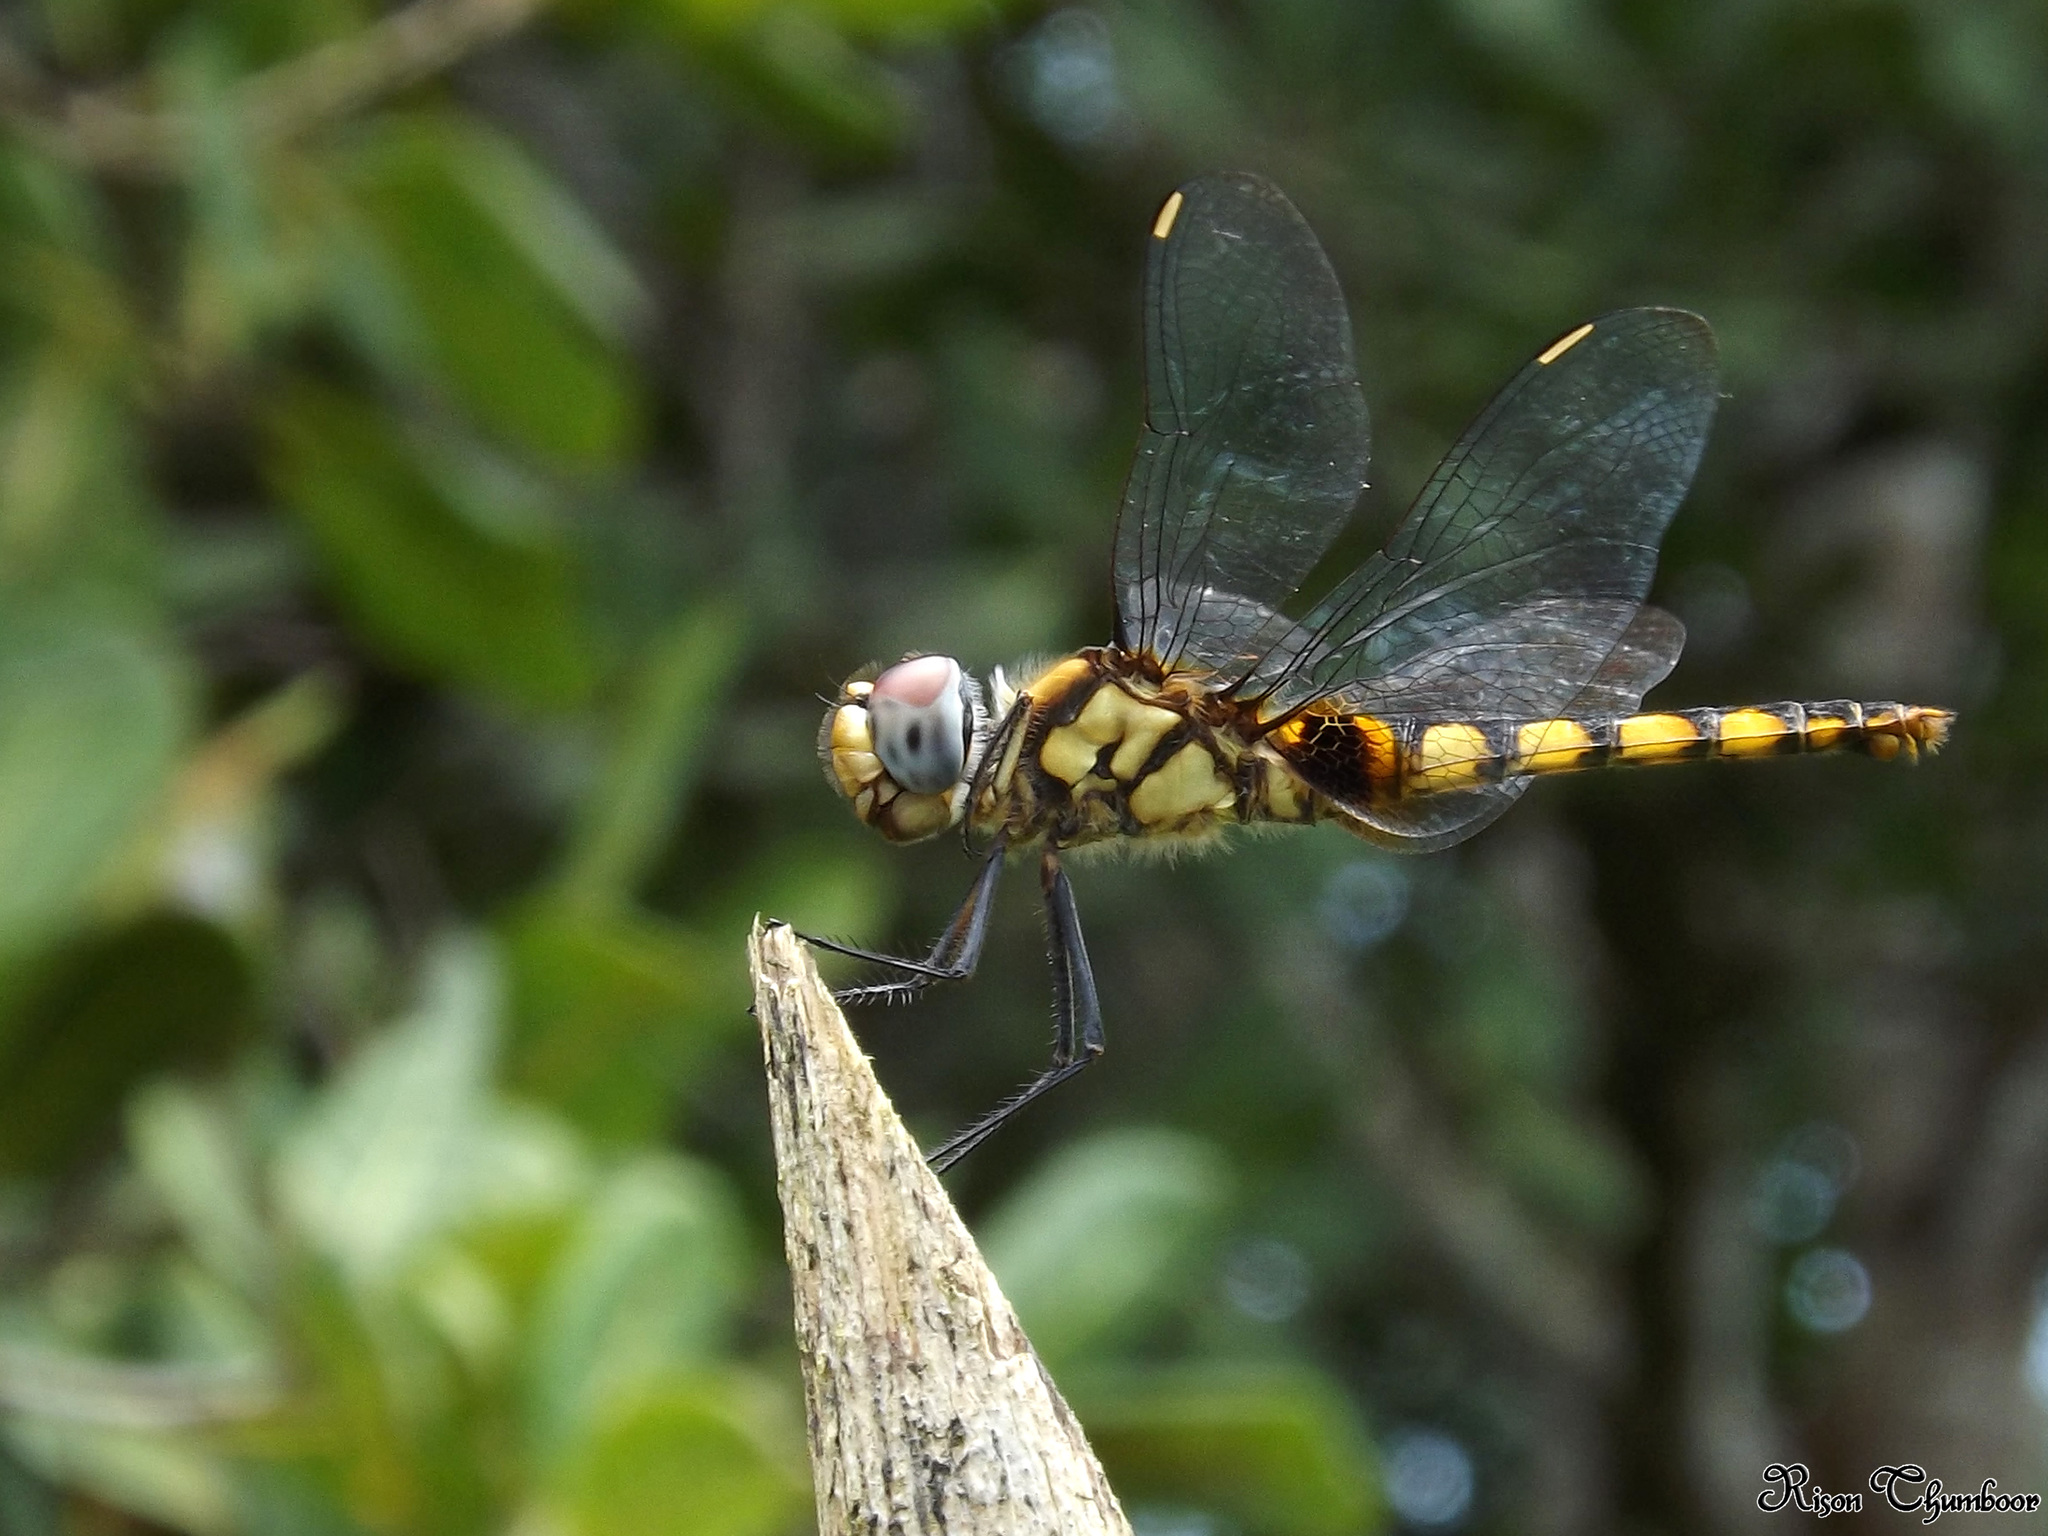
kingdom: Animalia
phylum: Arthropoda
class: Insecta
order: Odonata
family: Libellulidae
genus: Urothemis
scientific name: Urothemis signata
